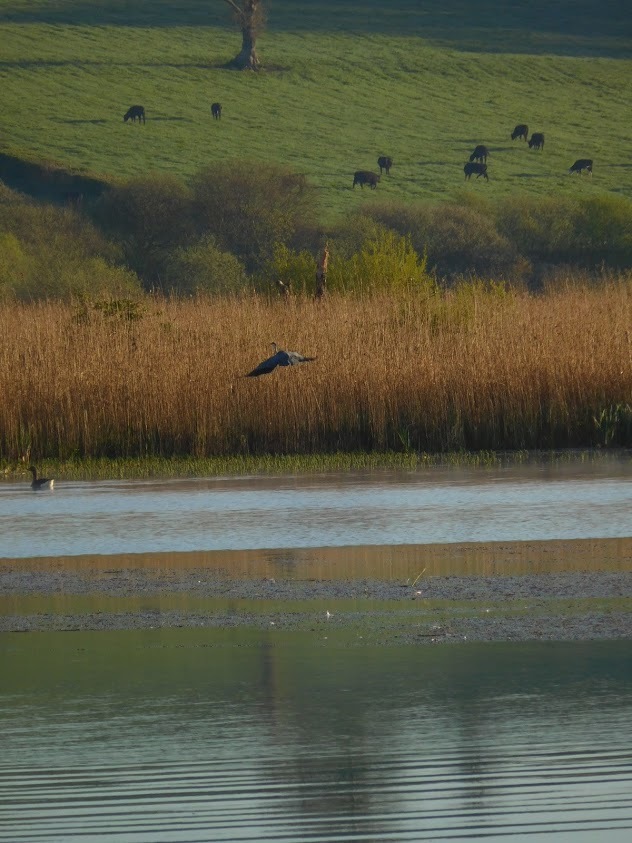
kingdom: Animalia
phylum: Chordata
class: Aves
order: Pelecaniformes
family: Ardeidae
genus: Ardea
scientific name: Ardea cinerea
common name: Grey heron
